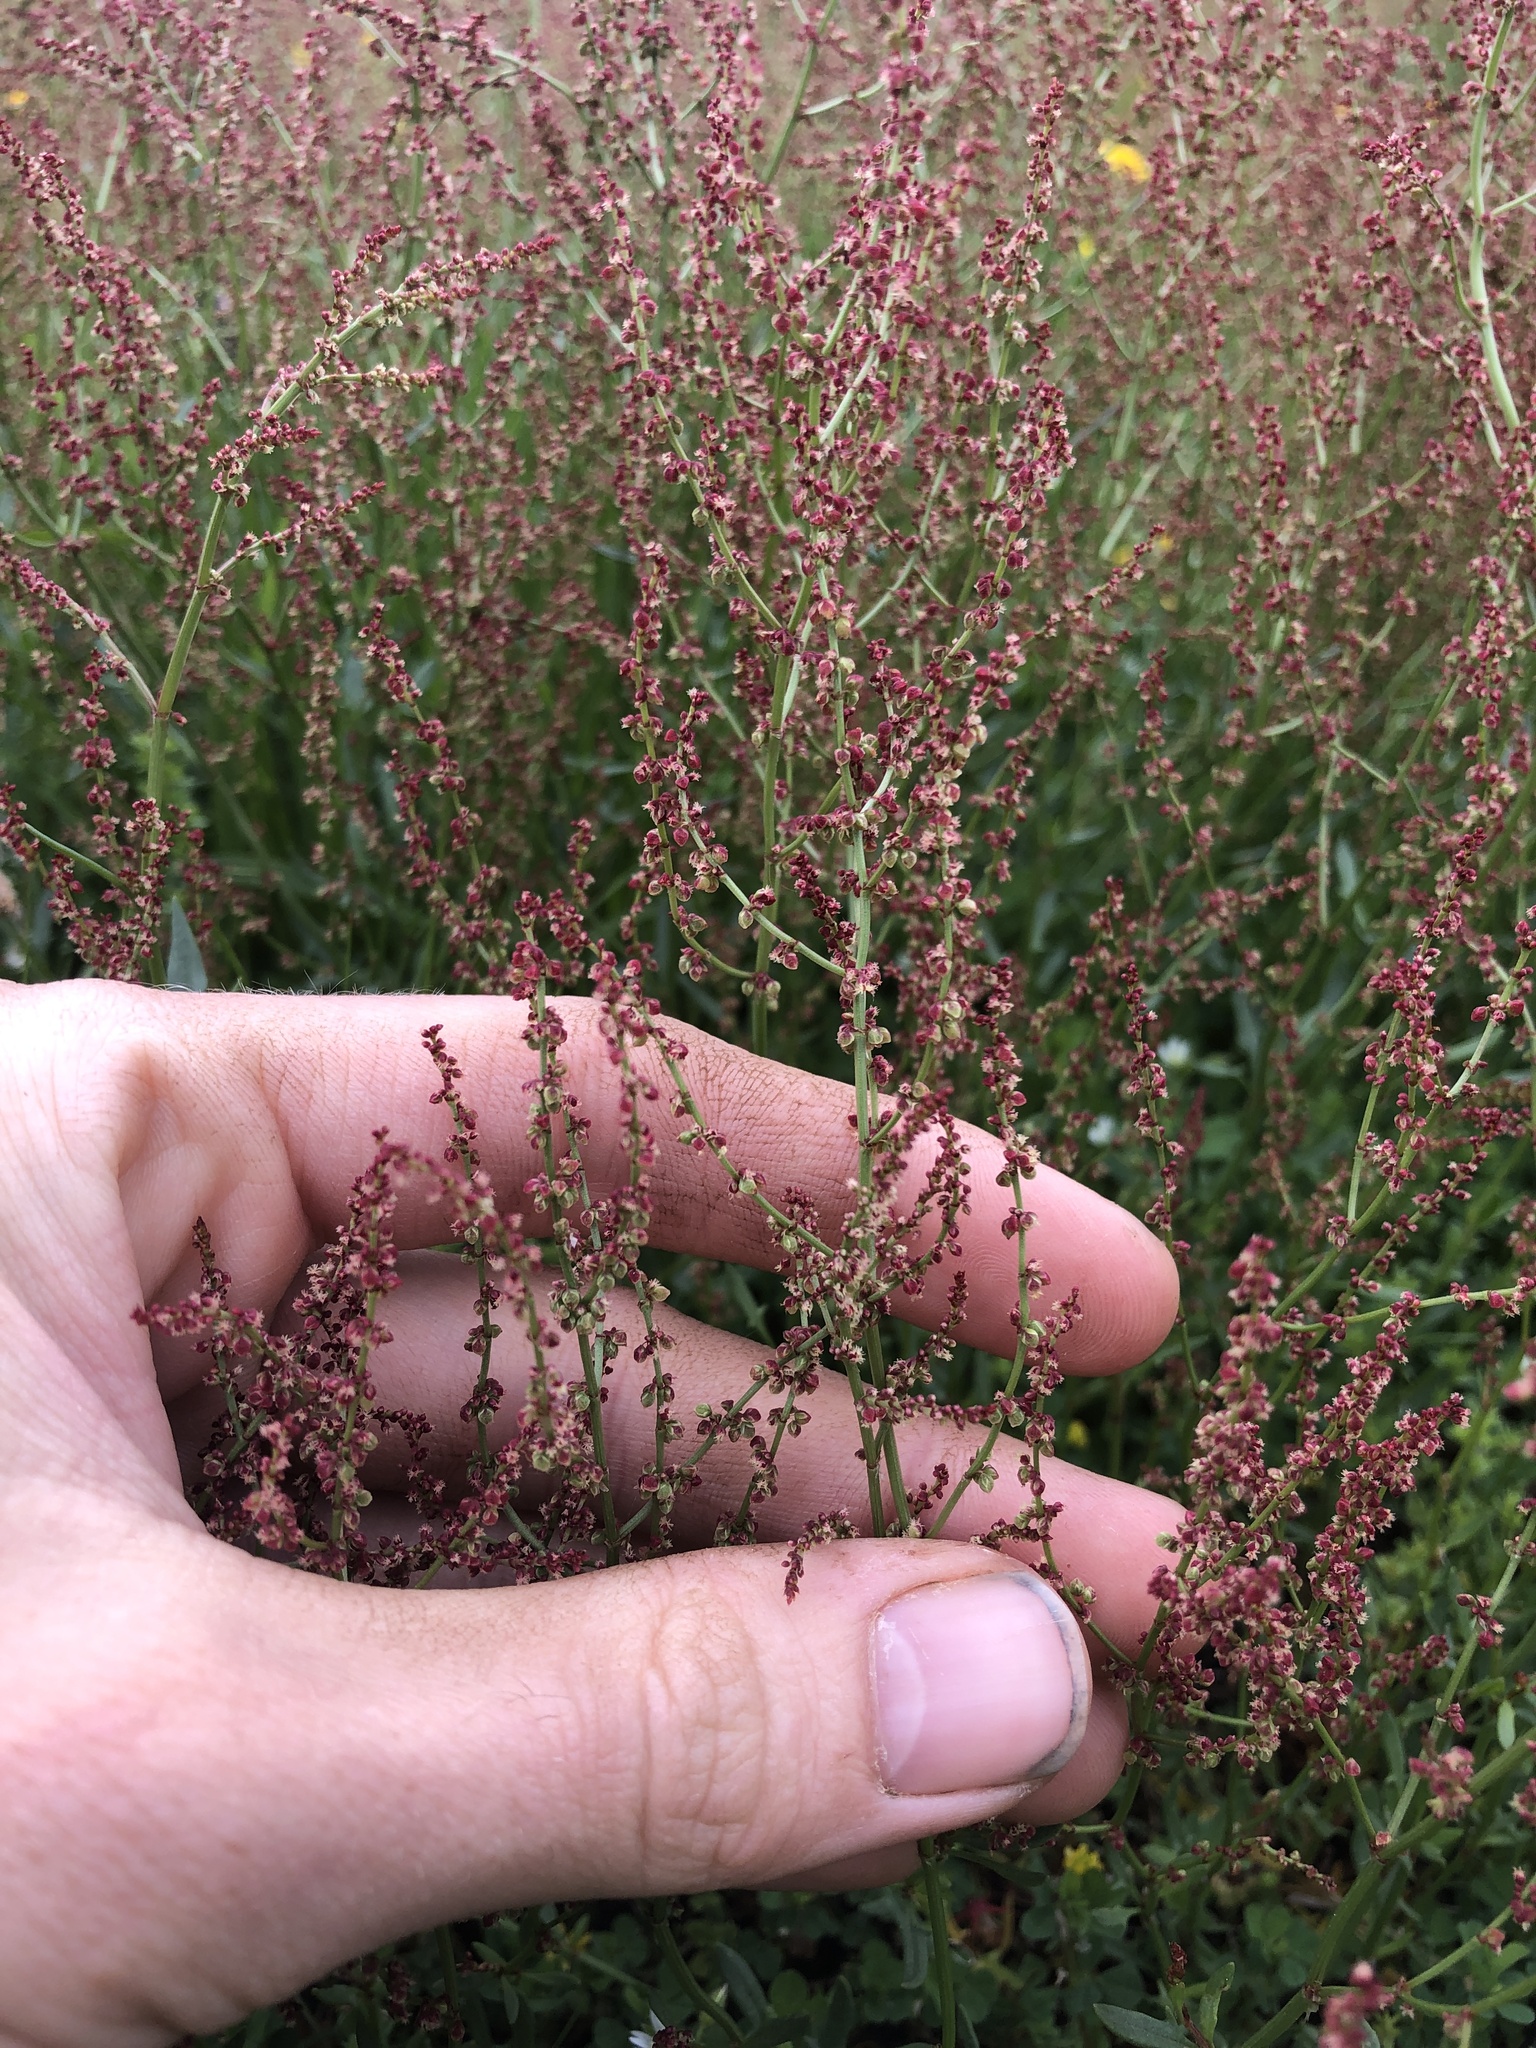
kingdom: Plantae
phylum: Tracheophyta
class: Magnoliopsida
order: Caryophyllales
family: Polygonaceae
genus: Rumex
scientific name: Rumex acetosella
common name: Common sheep sorrel
